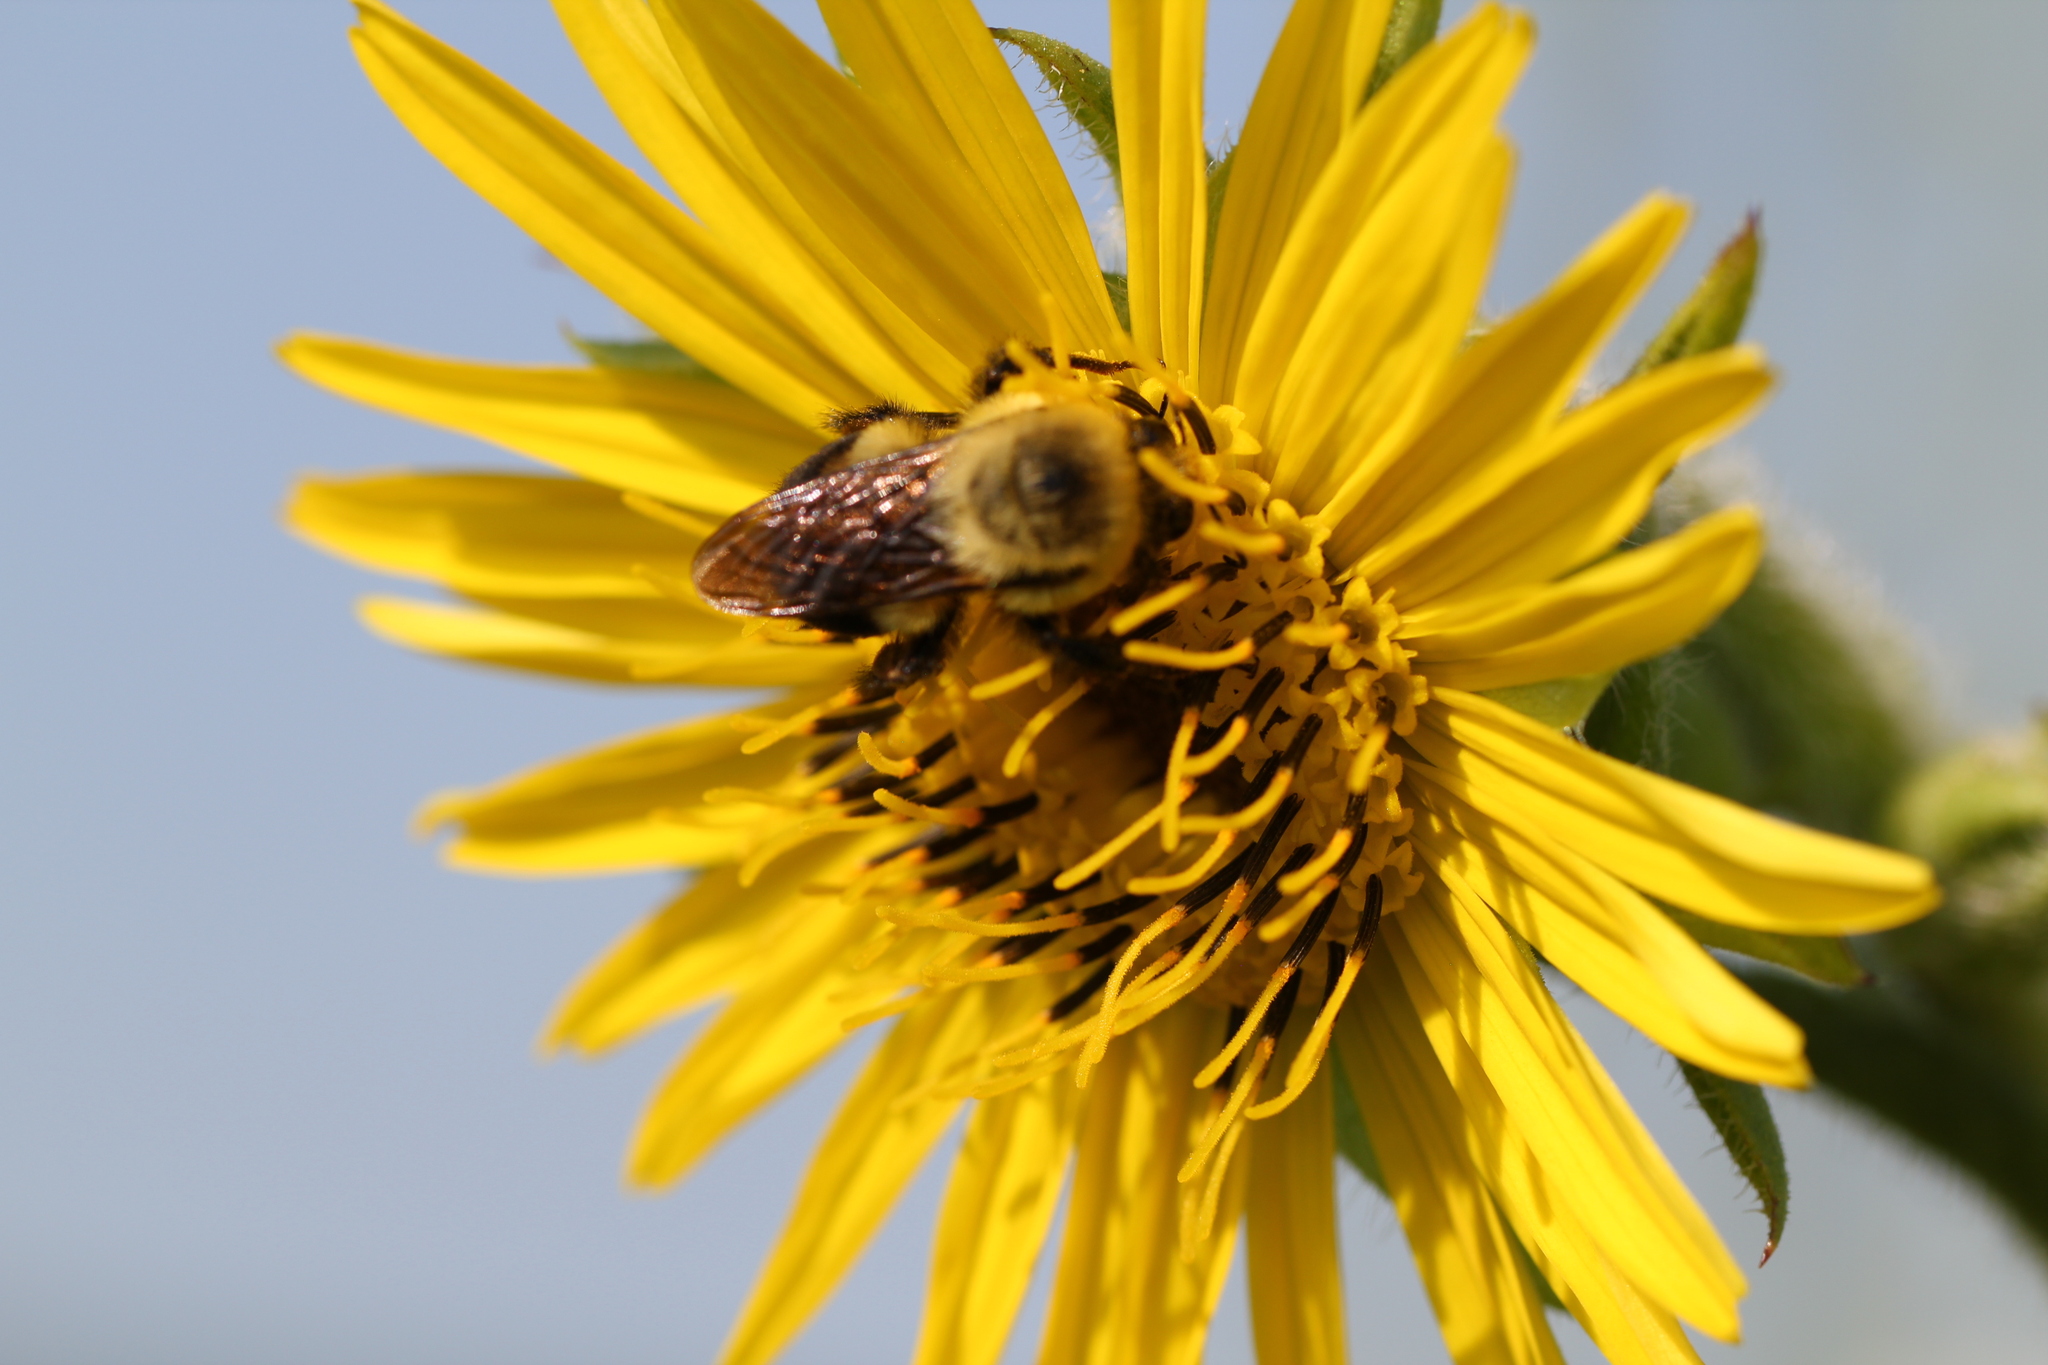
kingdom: Animalia
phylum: Arthropoda
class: Insecta
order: Hymenoptera
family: Apidae
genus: Bombus
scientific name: Bombus griseocollis
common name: Brown-belted bumble bee
